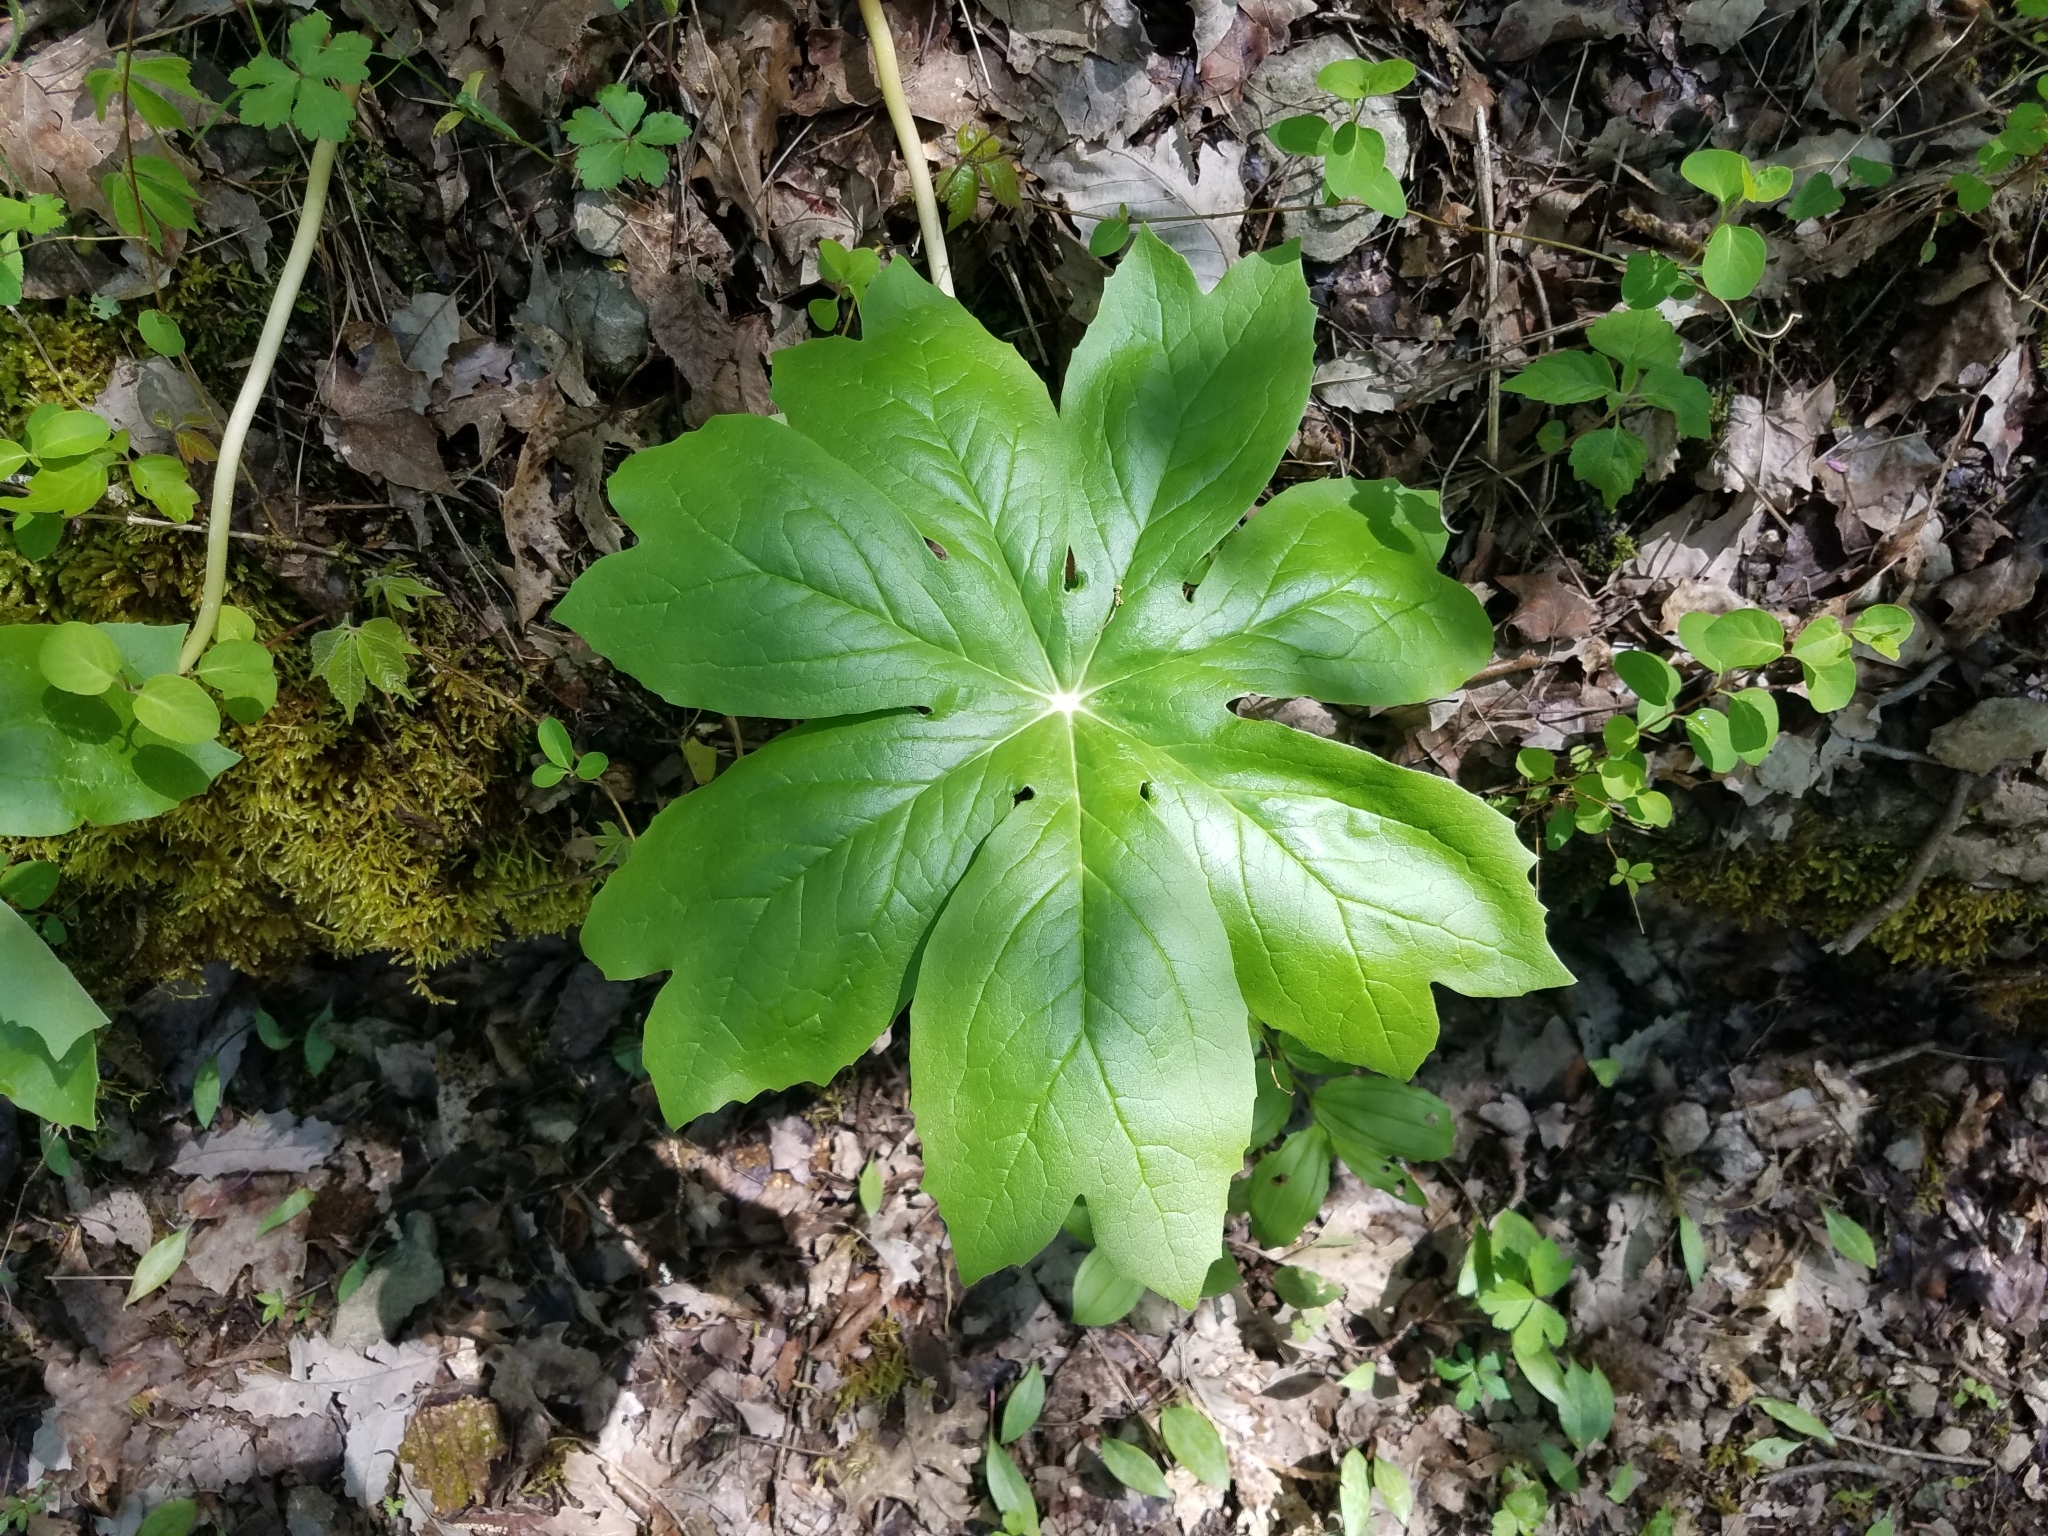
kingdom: Plantae
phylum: Tracheophyta
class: Magnoliopsida
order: Ranunculales
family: Berberidaceae
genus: Podophyllum
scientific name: Podophyllum peltatum
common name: Wild mandrake
